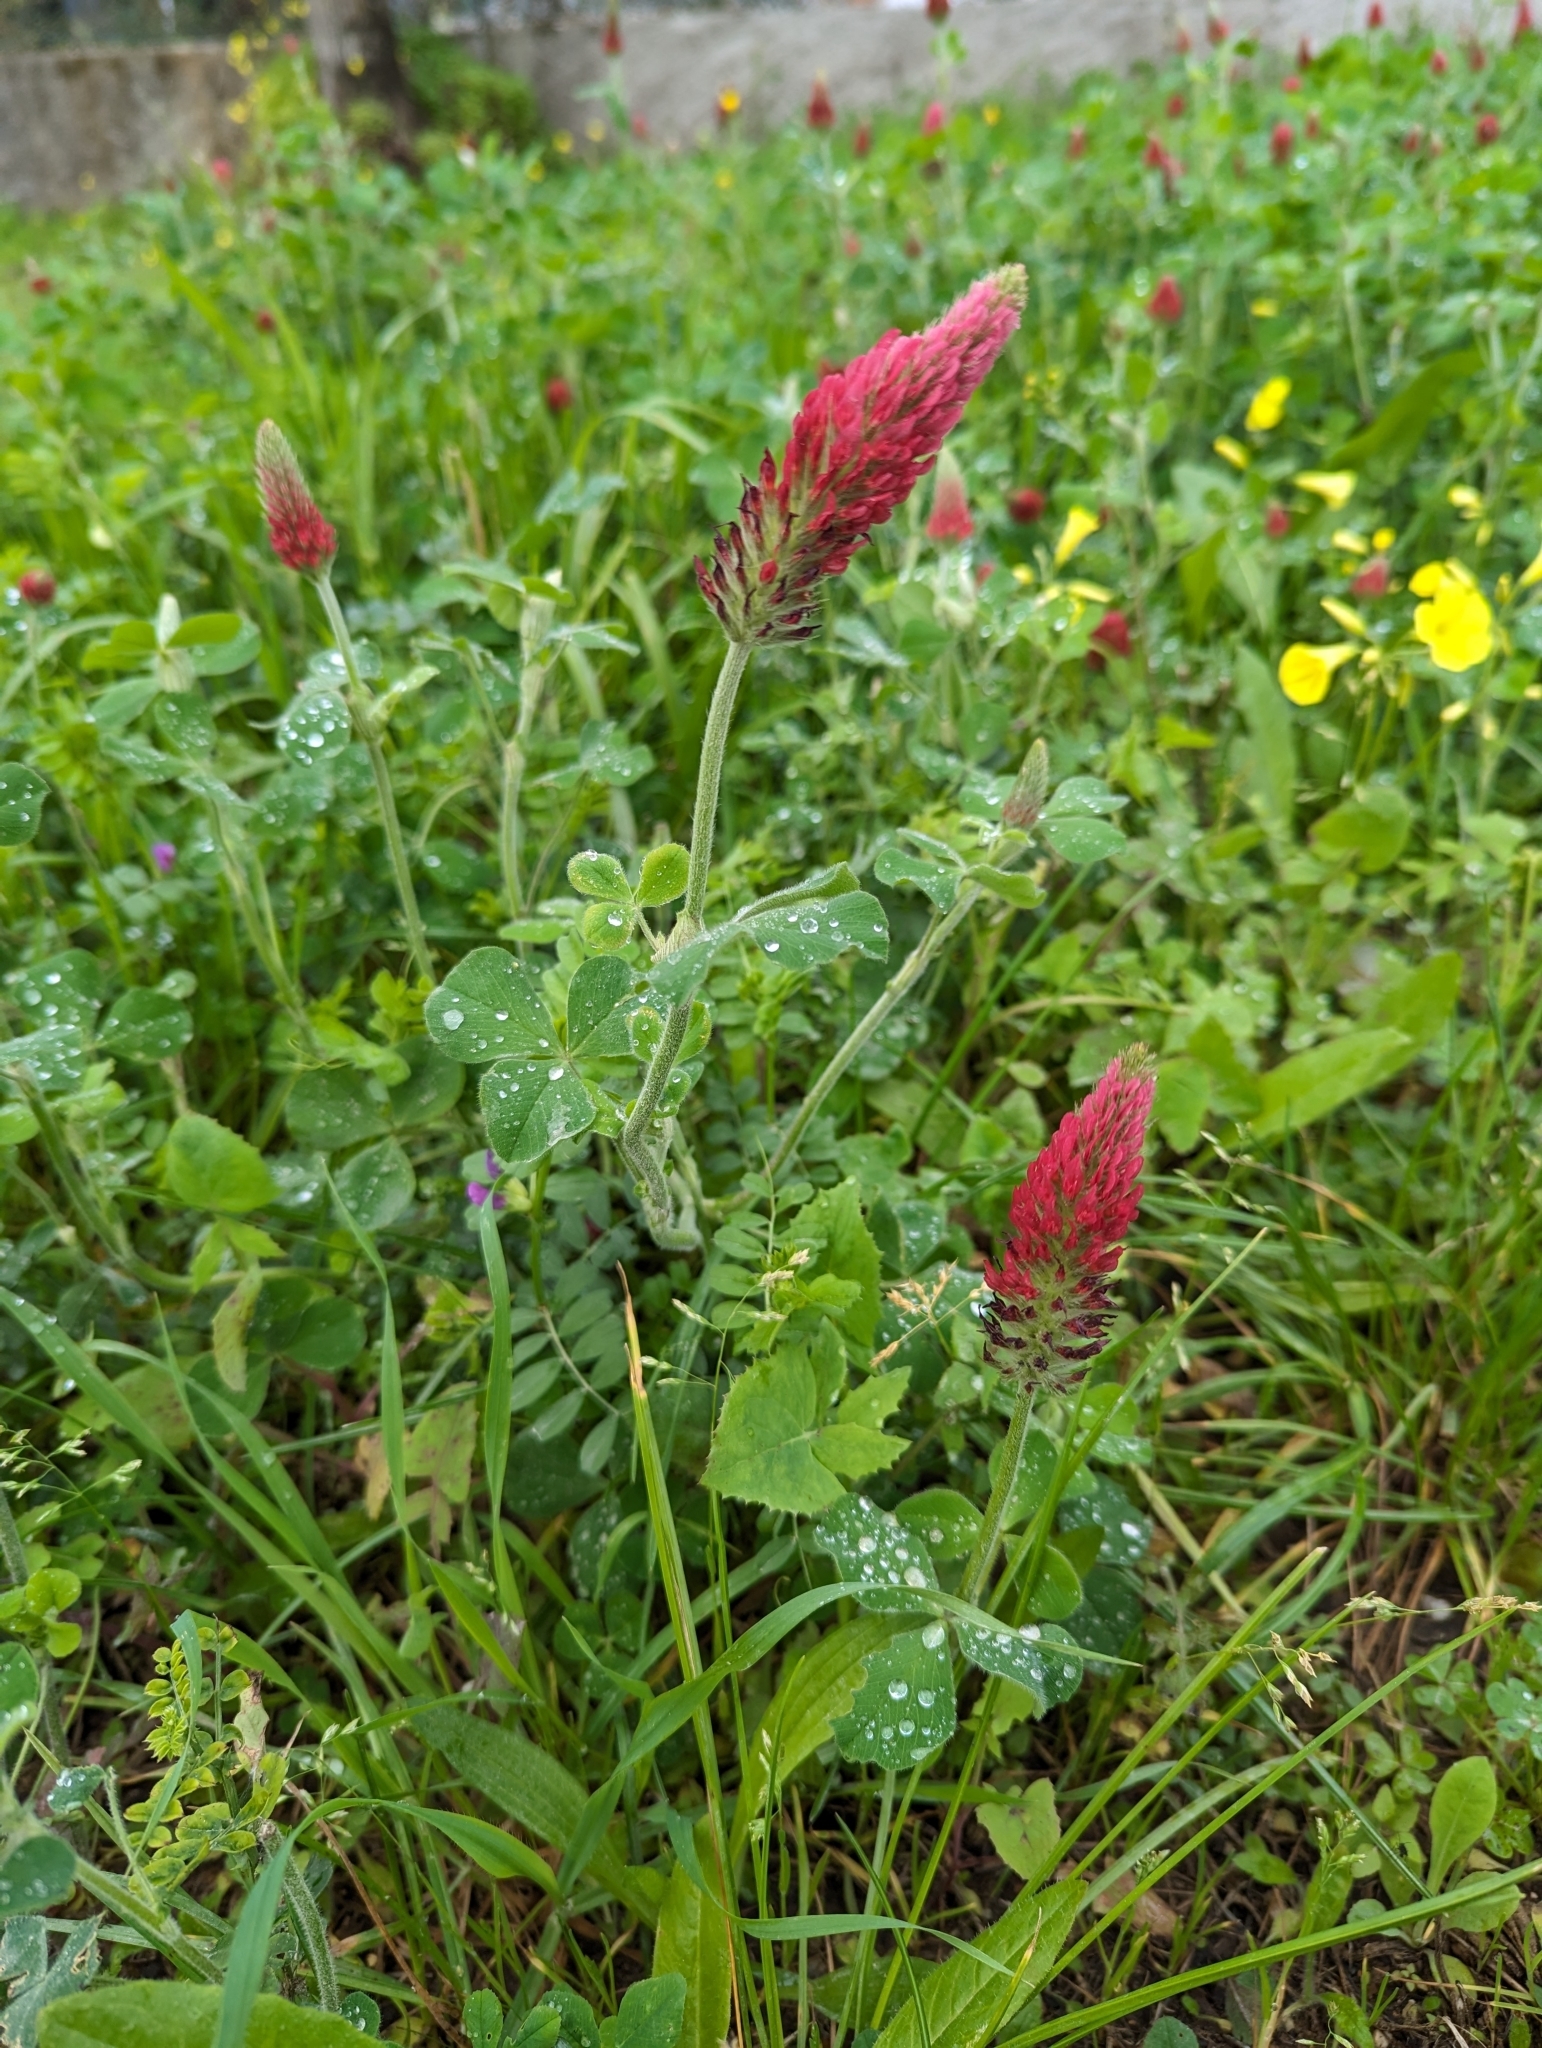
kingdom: Plantae
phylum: Tracheophyta
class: Magnoliopsida
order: Fabales
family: Fabaceae
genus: Trifolium
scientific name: Trifolium incarnatum
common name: Crimson clover
